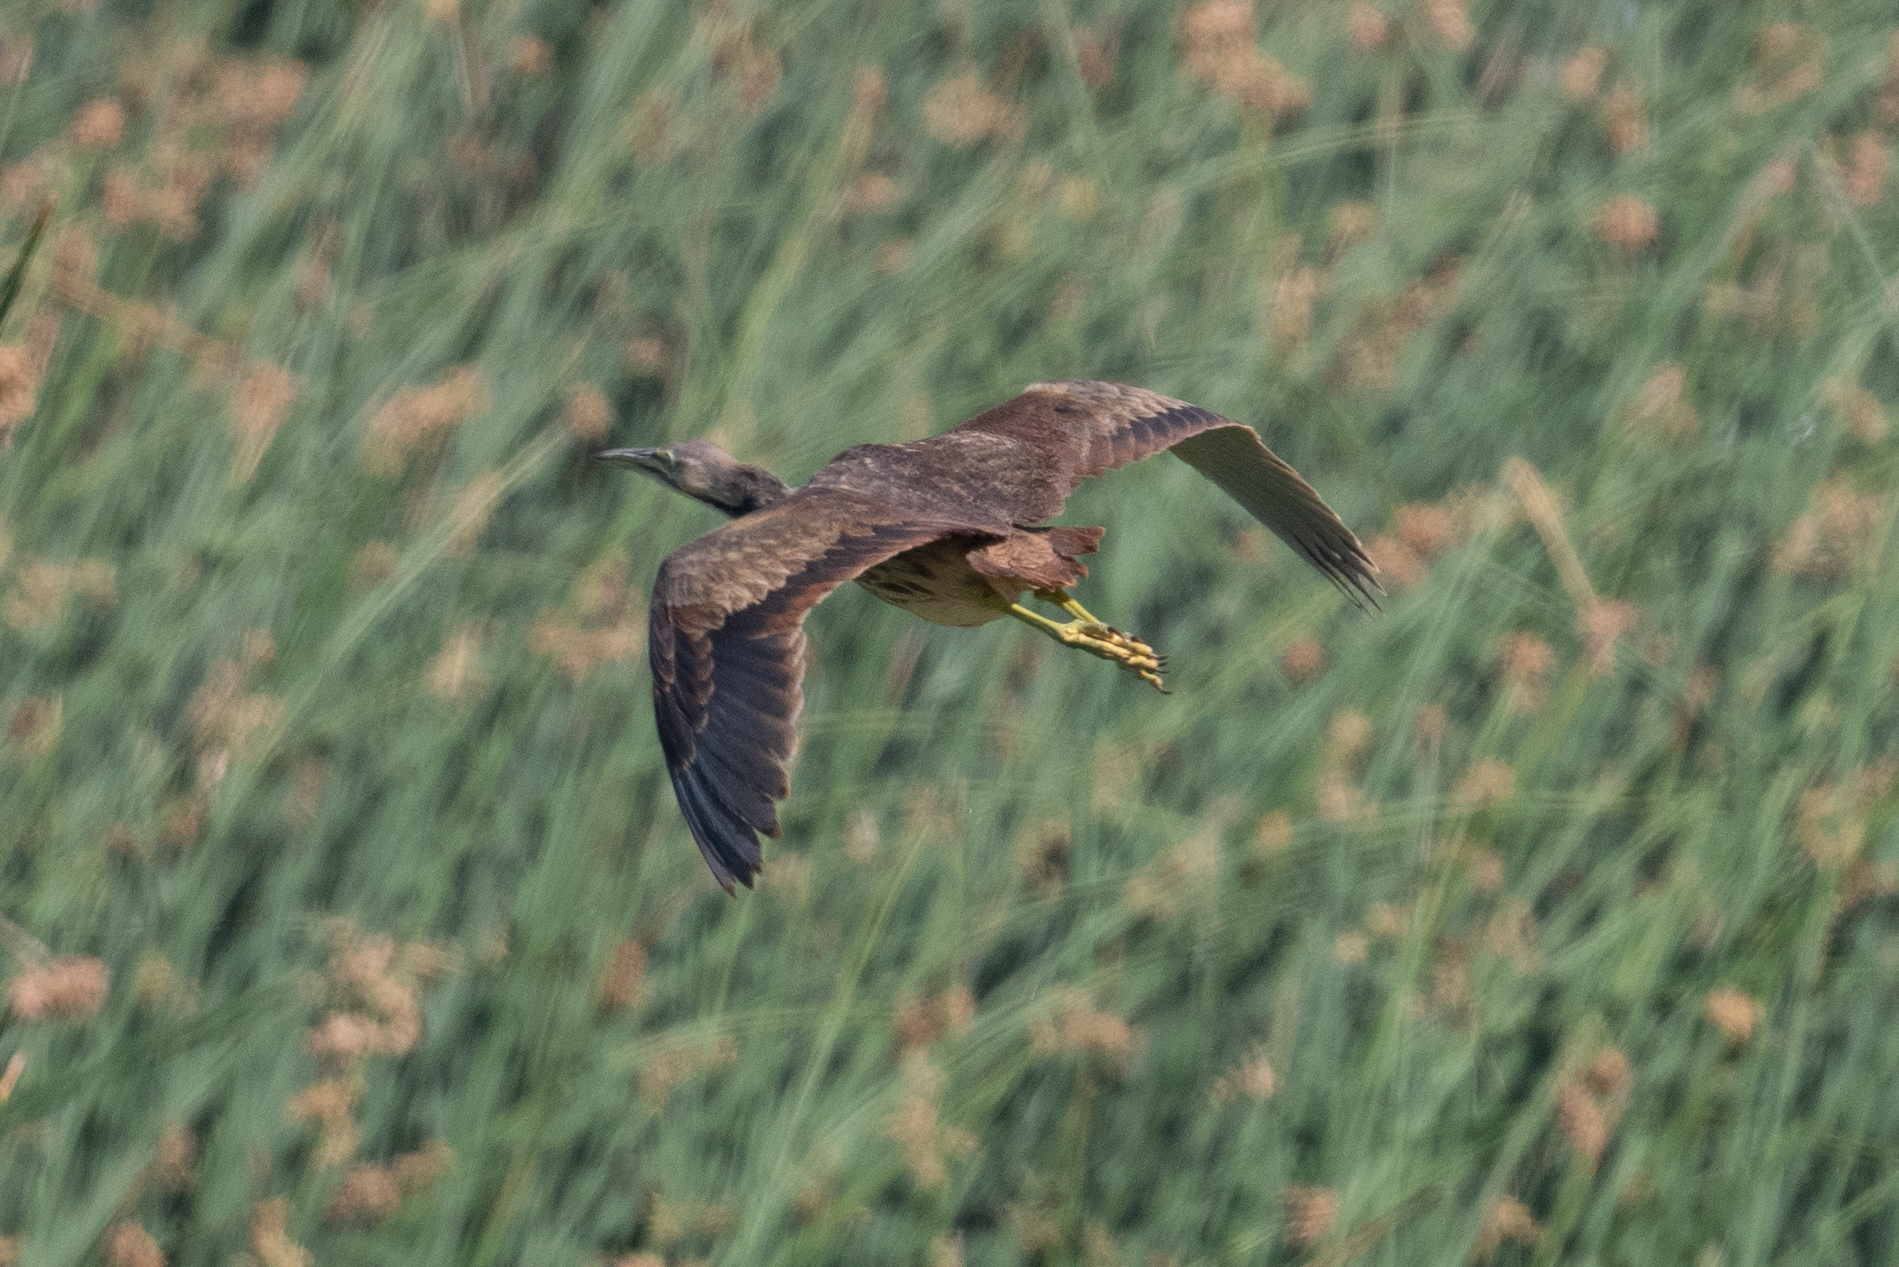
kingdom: Animalia
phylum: Chordata
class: Aves
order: Pelecaniformes
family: Ardeidae
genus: Botaurus
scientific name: Botaurus lentiginosus
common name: American bittern
